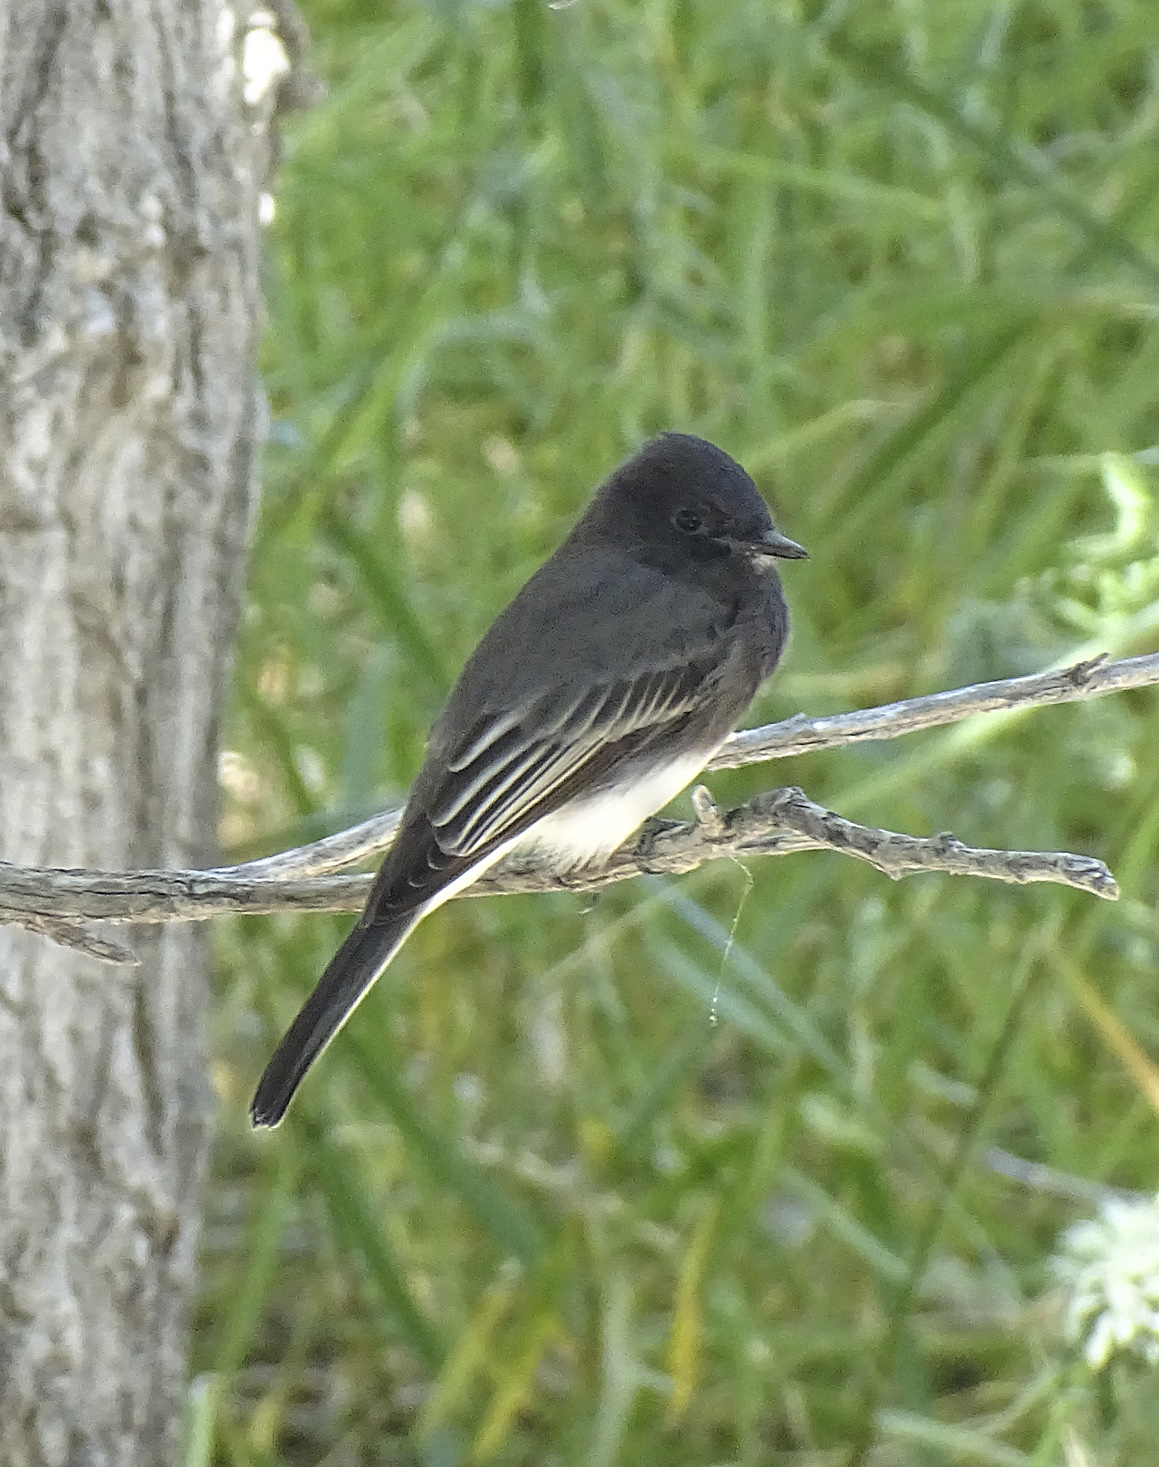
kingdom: Animalia
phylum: Chordata
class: Aves
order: Passeriformes
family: Tyrannidae
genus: Sayornis
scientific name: Sayornis nigricans
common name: Black phoebe
